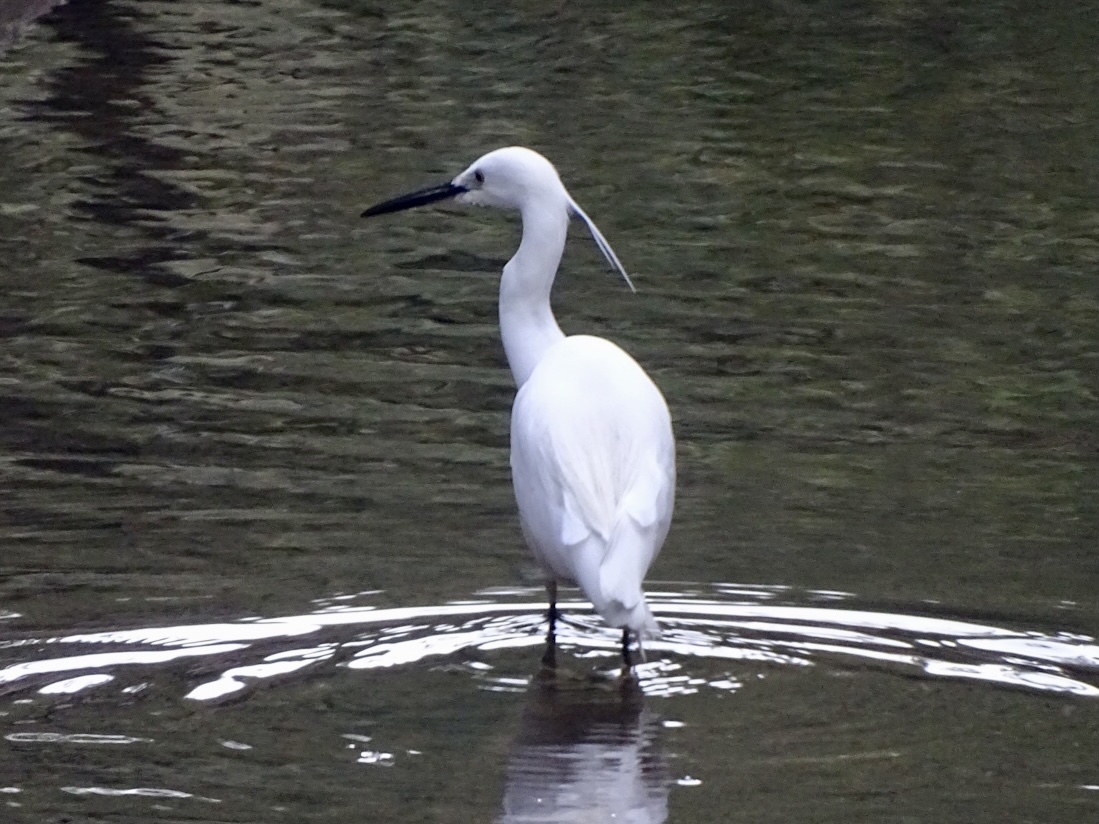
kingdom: Animalia
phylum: Chordata
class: Aves
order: Pelecaniformes
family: Ardeidae
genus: Egretta
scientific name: Egretta garzetta
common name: Little egret
